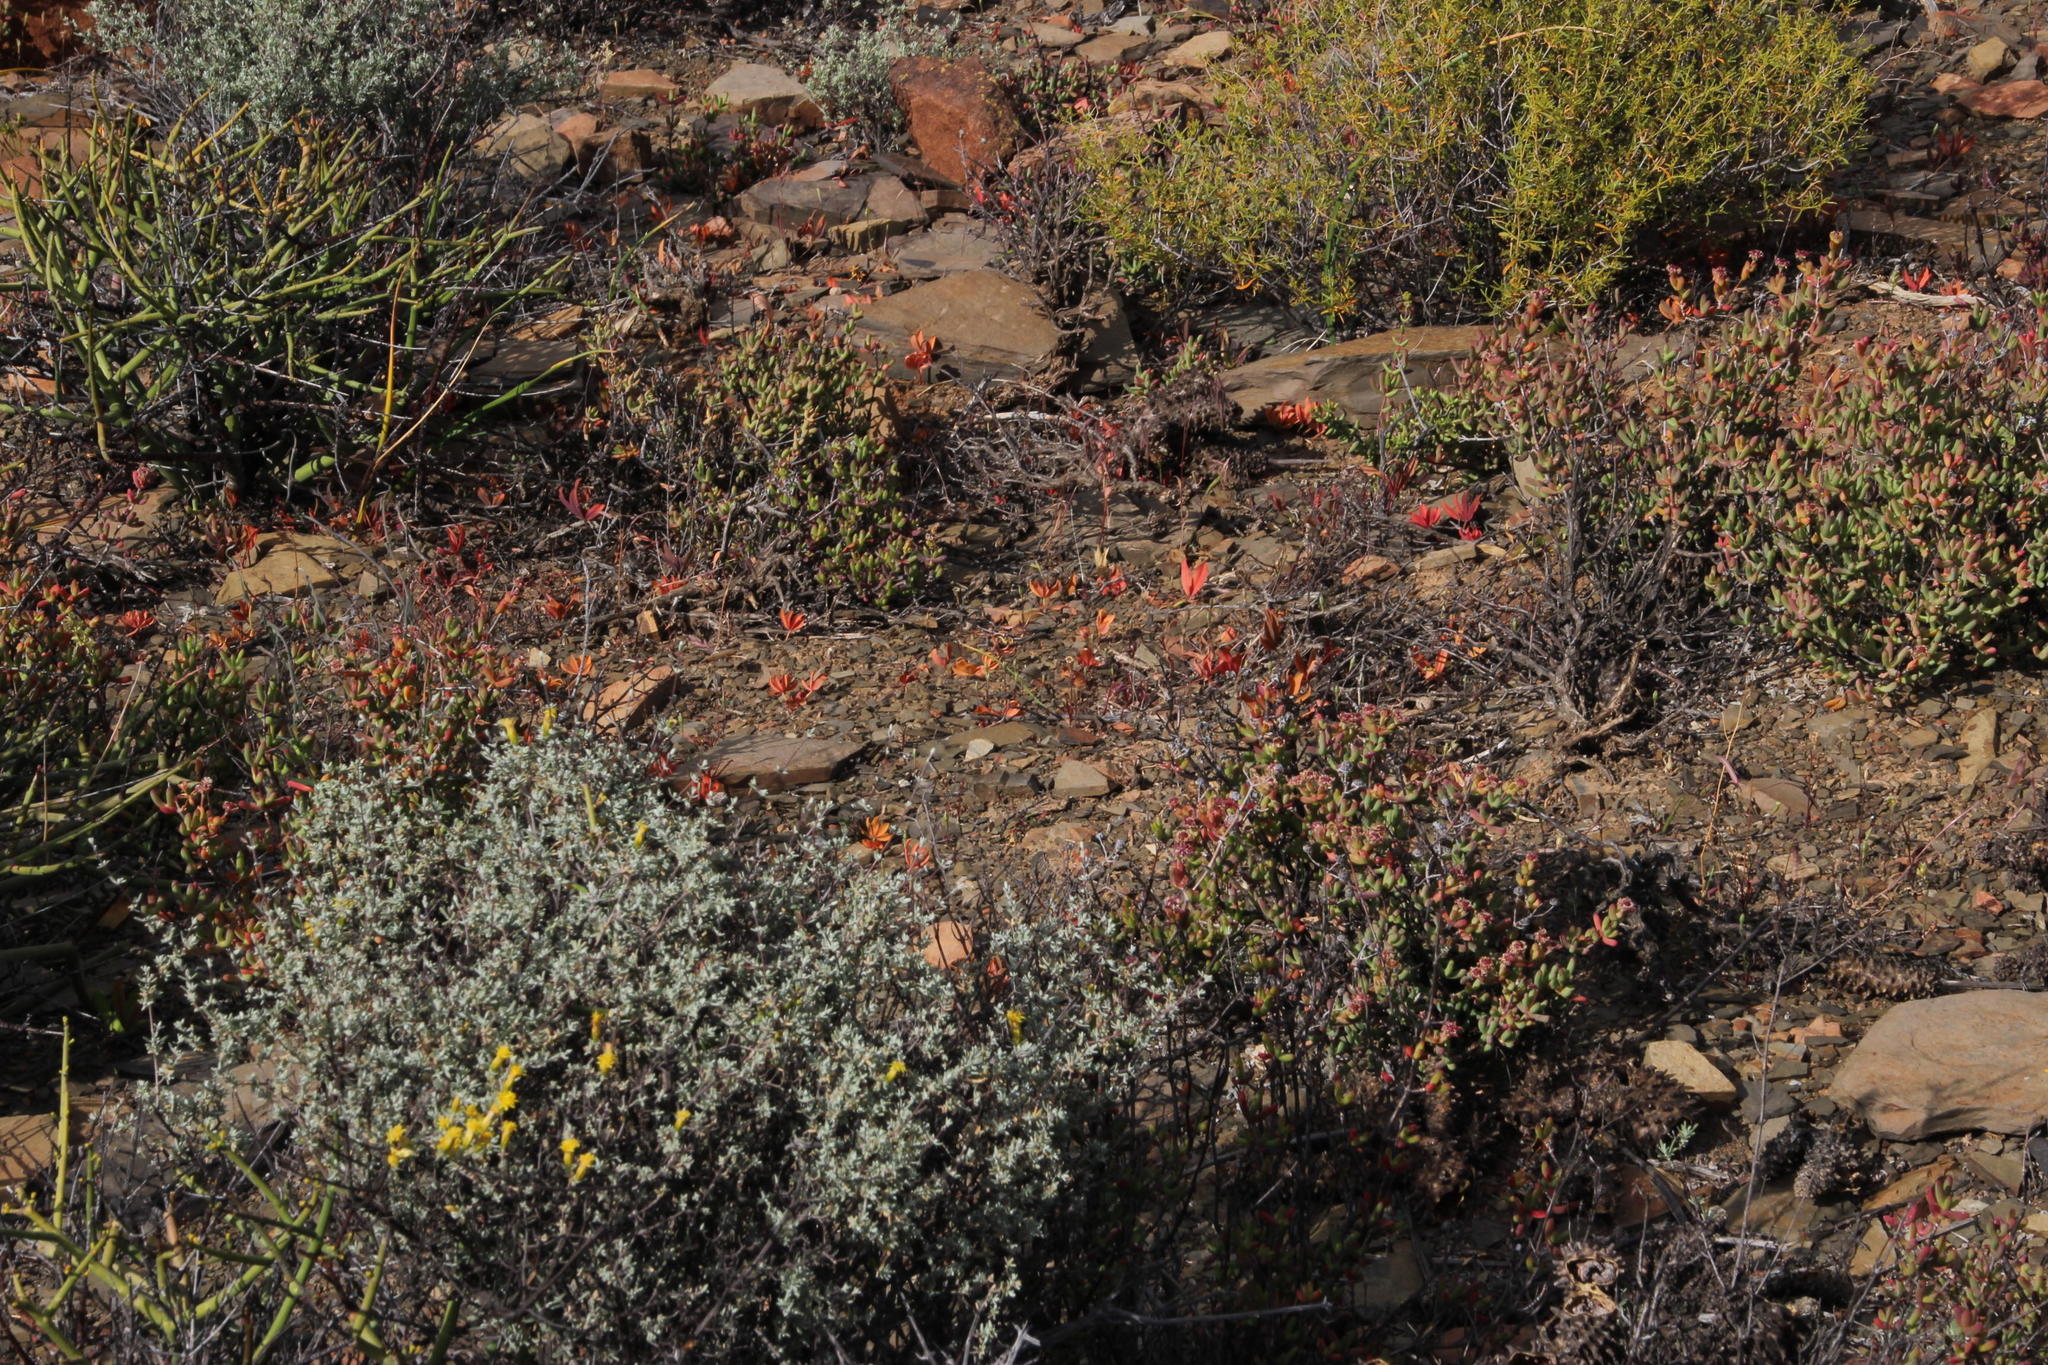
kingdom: Plantae
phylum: Tracheophyta
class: Magnoliopsida
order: Oxalidales
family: Oxalidaceae
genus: Oxalis
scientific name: Oxalis flava
